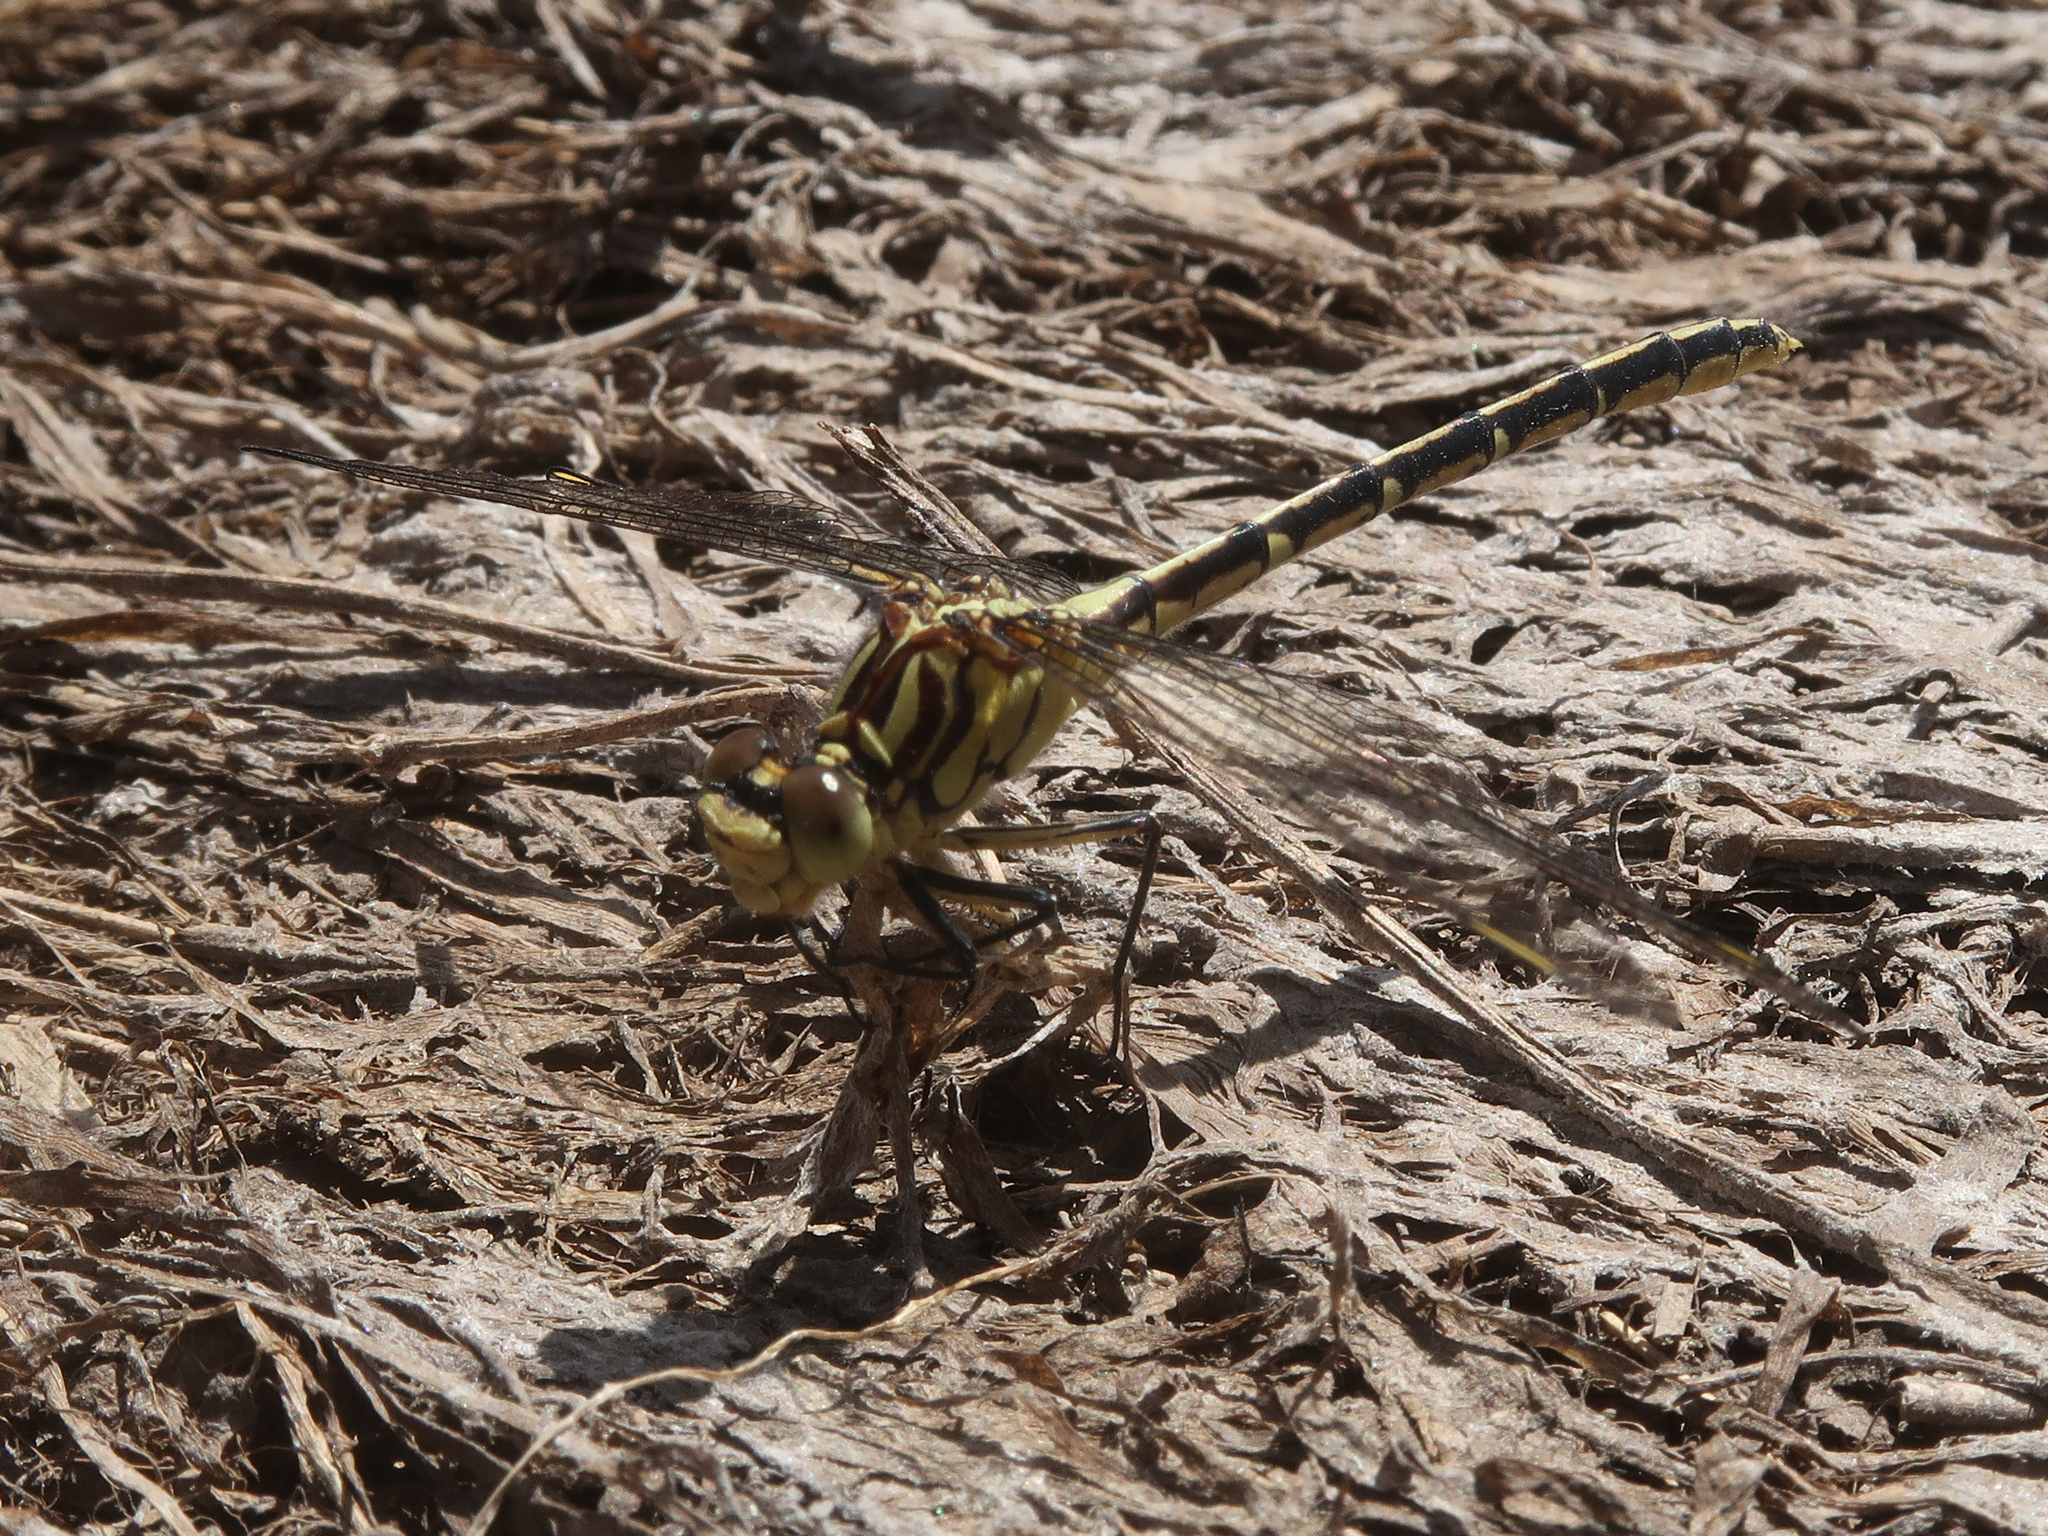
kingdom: Animalia
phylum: Arthropoda
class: Insecta
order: Odonata
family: Gomphidae
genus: Austrogomphus
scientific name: Austrogomphus guerini
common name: Yellow-striped hunter
